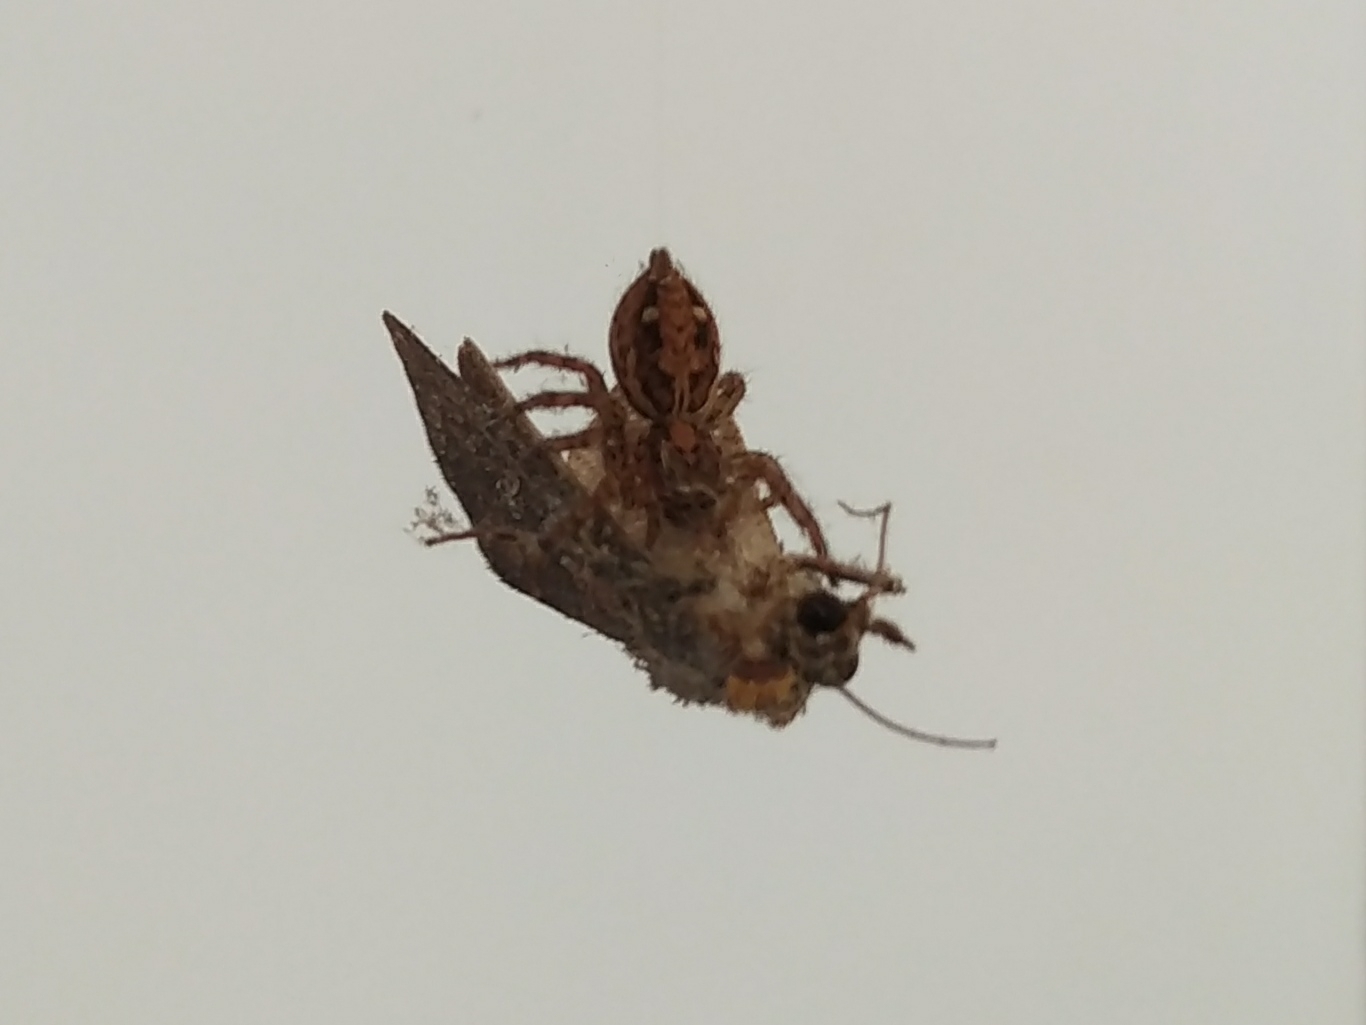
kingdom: Animalia
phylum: Arthropoda
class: Arachnida
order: Araneae
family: Salticidae
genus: Plexippus
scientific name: Plexippus paykulli
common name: Pantropical jumper
